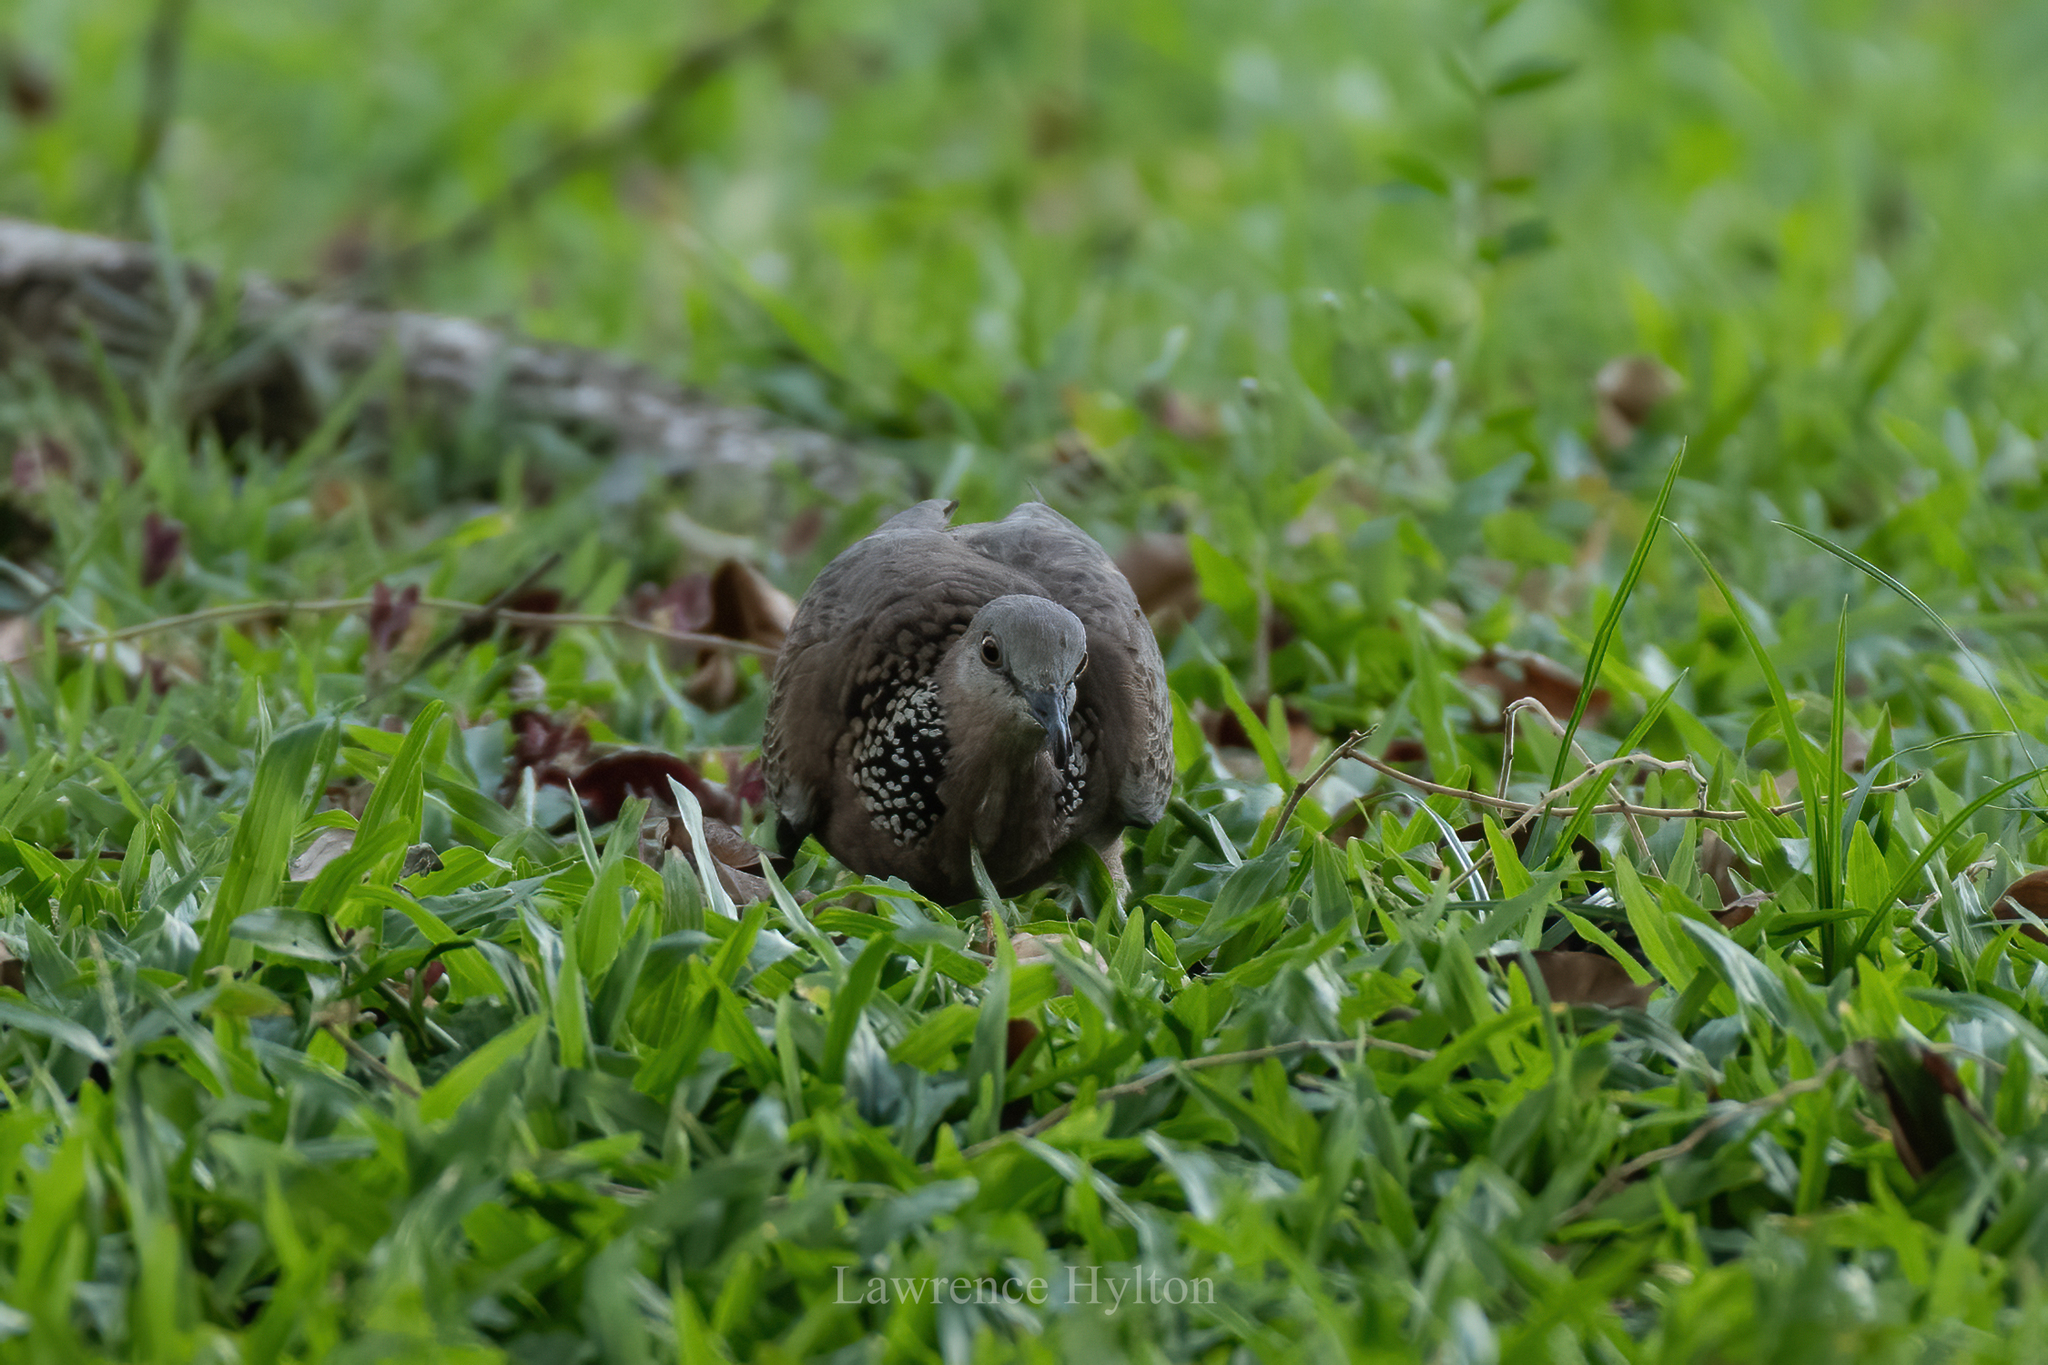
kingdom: Animalia
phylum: Chordata
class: Aves
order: Columbiformes
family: Columbidae
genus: Spilopelia
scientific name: Spilopelia chinensis
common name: Spotted dove
